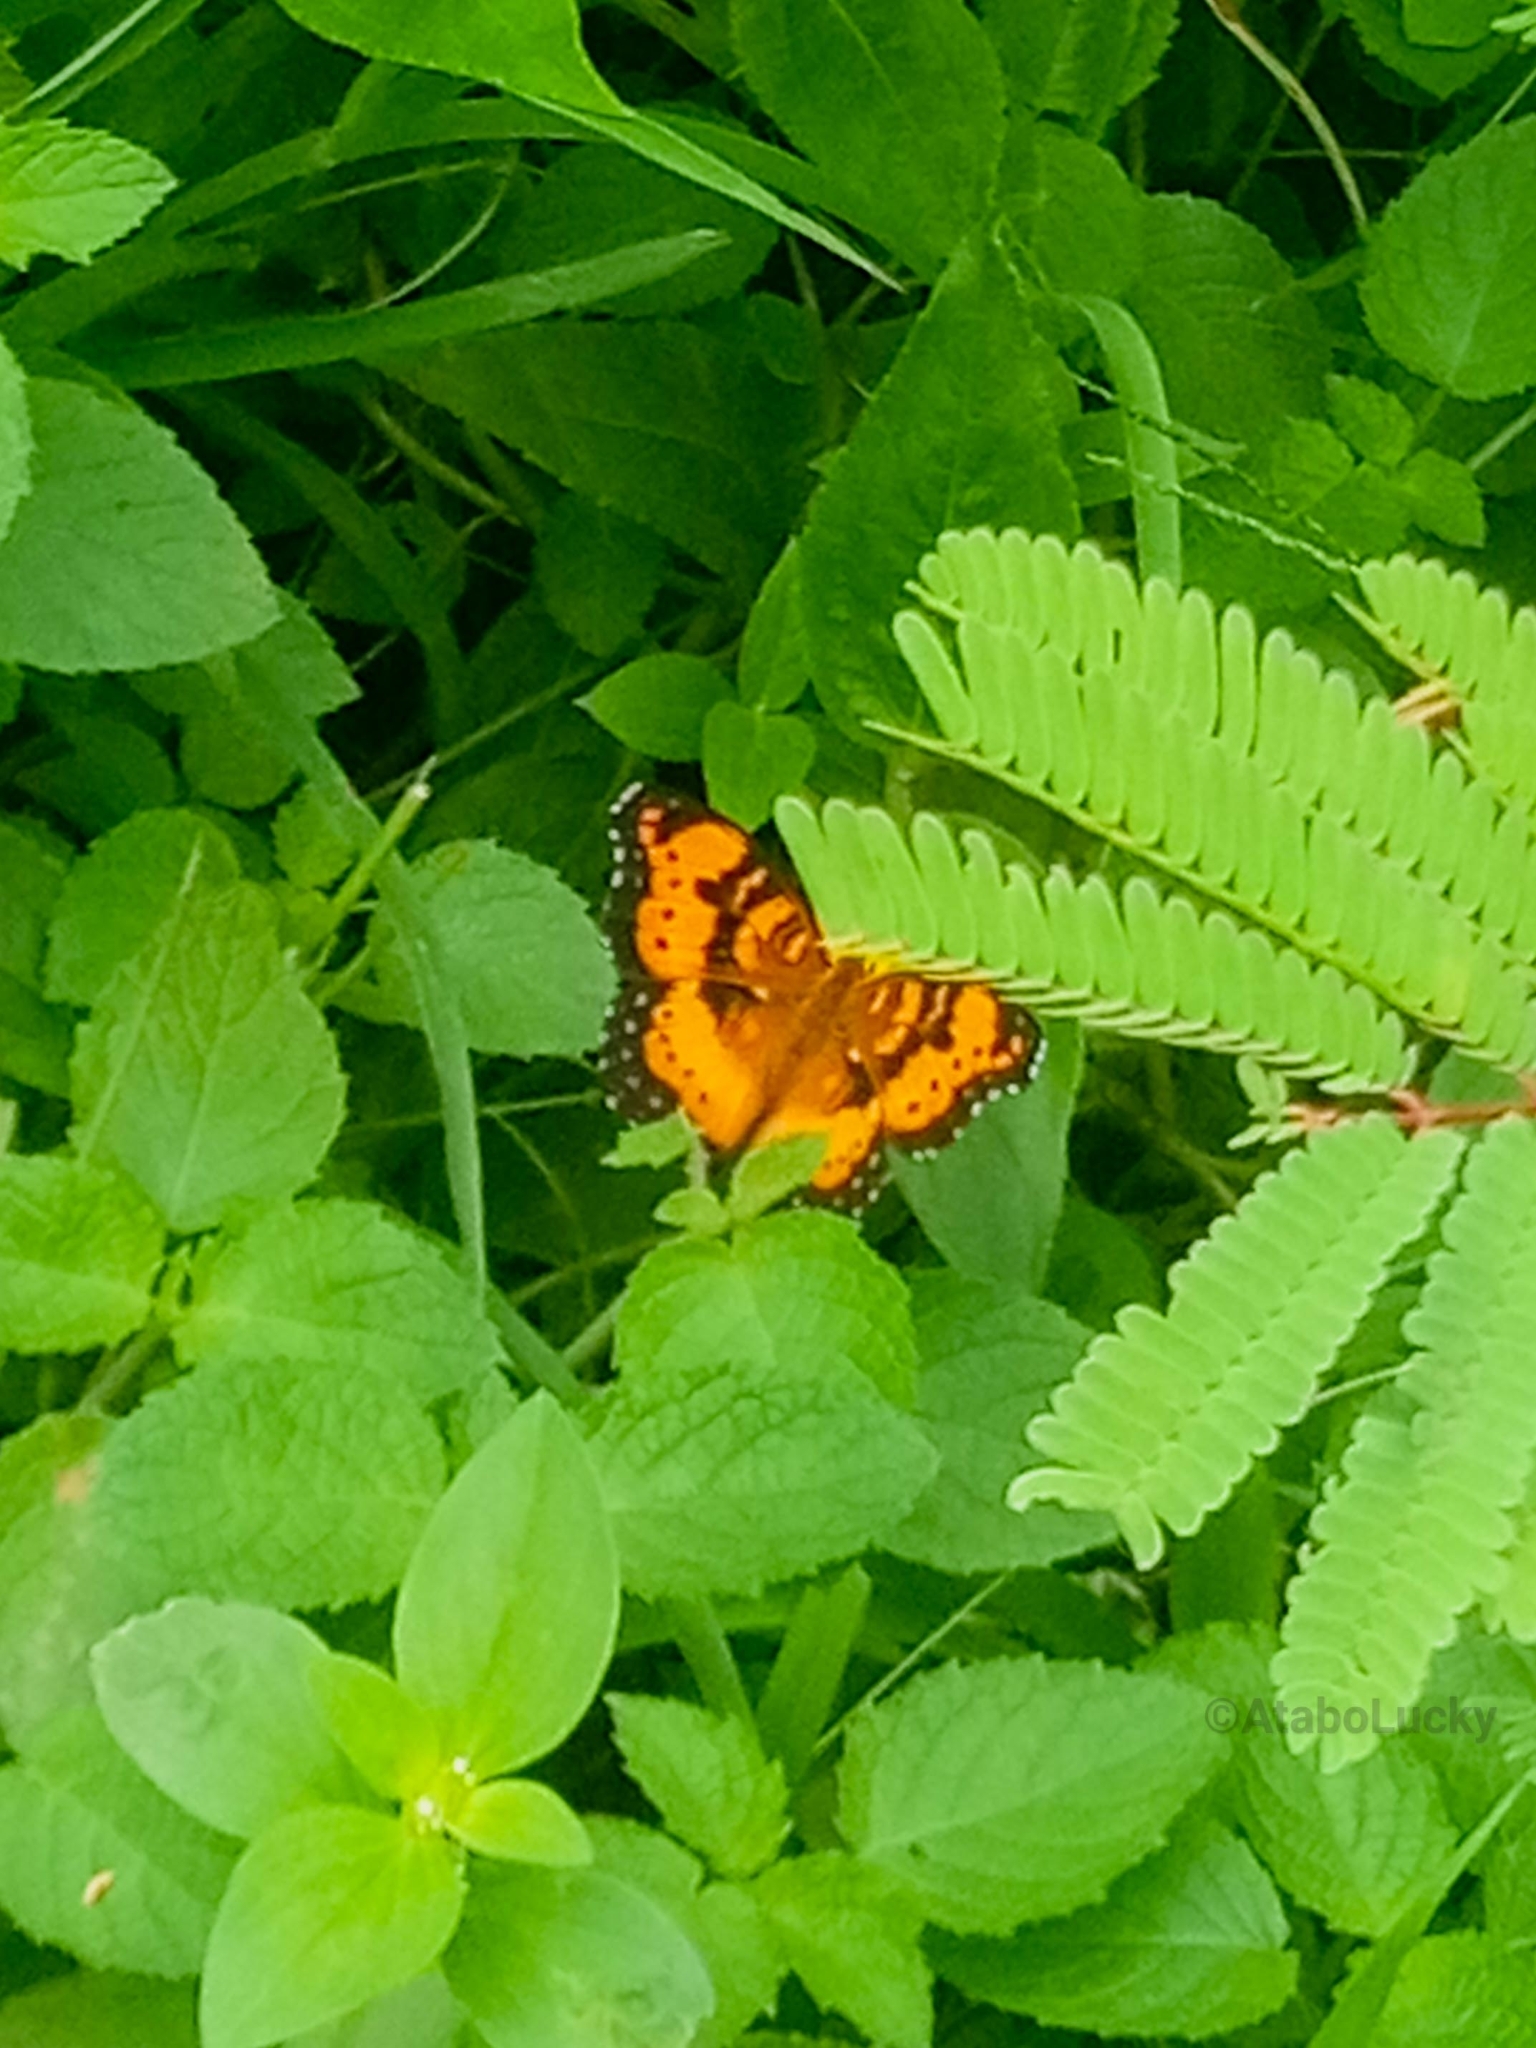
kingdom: Animalia
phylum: Arthropoda
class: Insecta
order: Lepidoptera
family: Nymphalidae
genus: Junonia
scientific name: Junonia antilope
